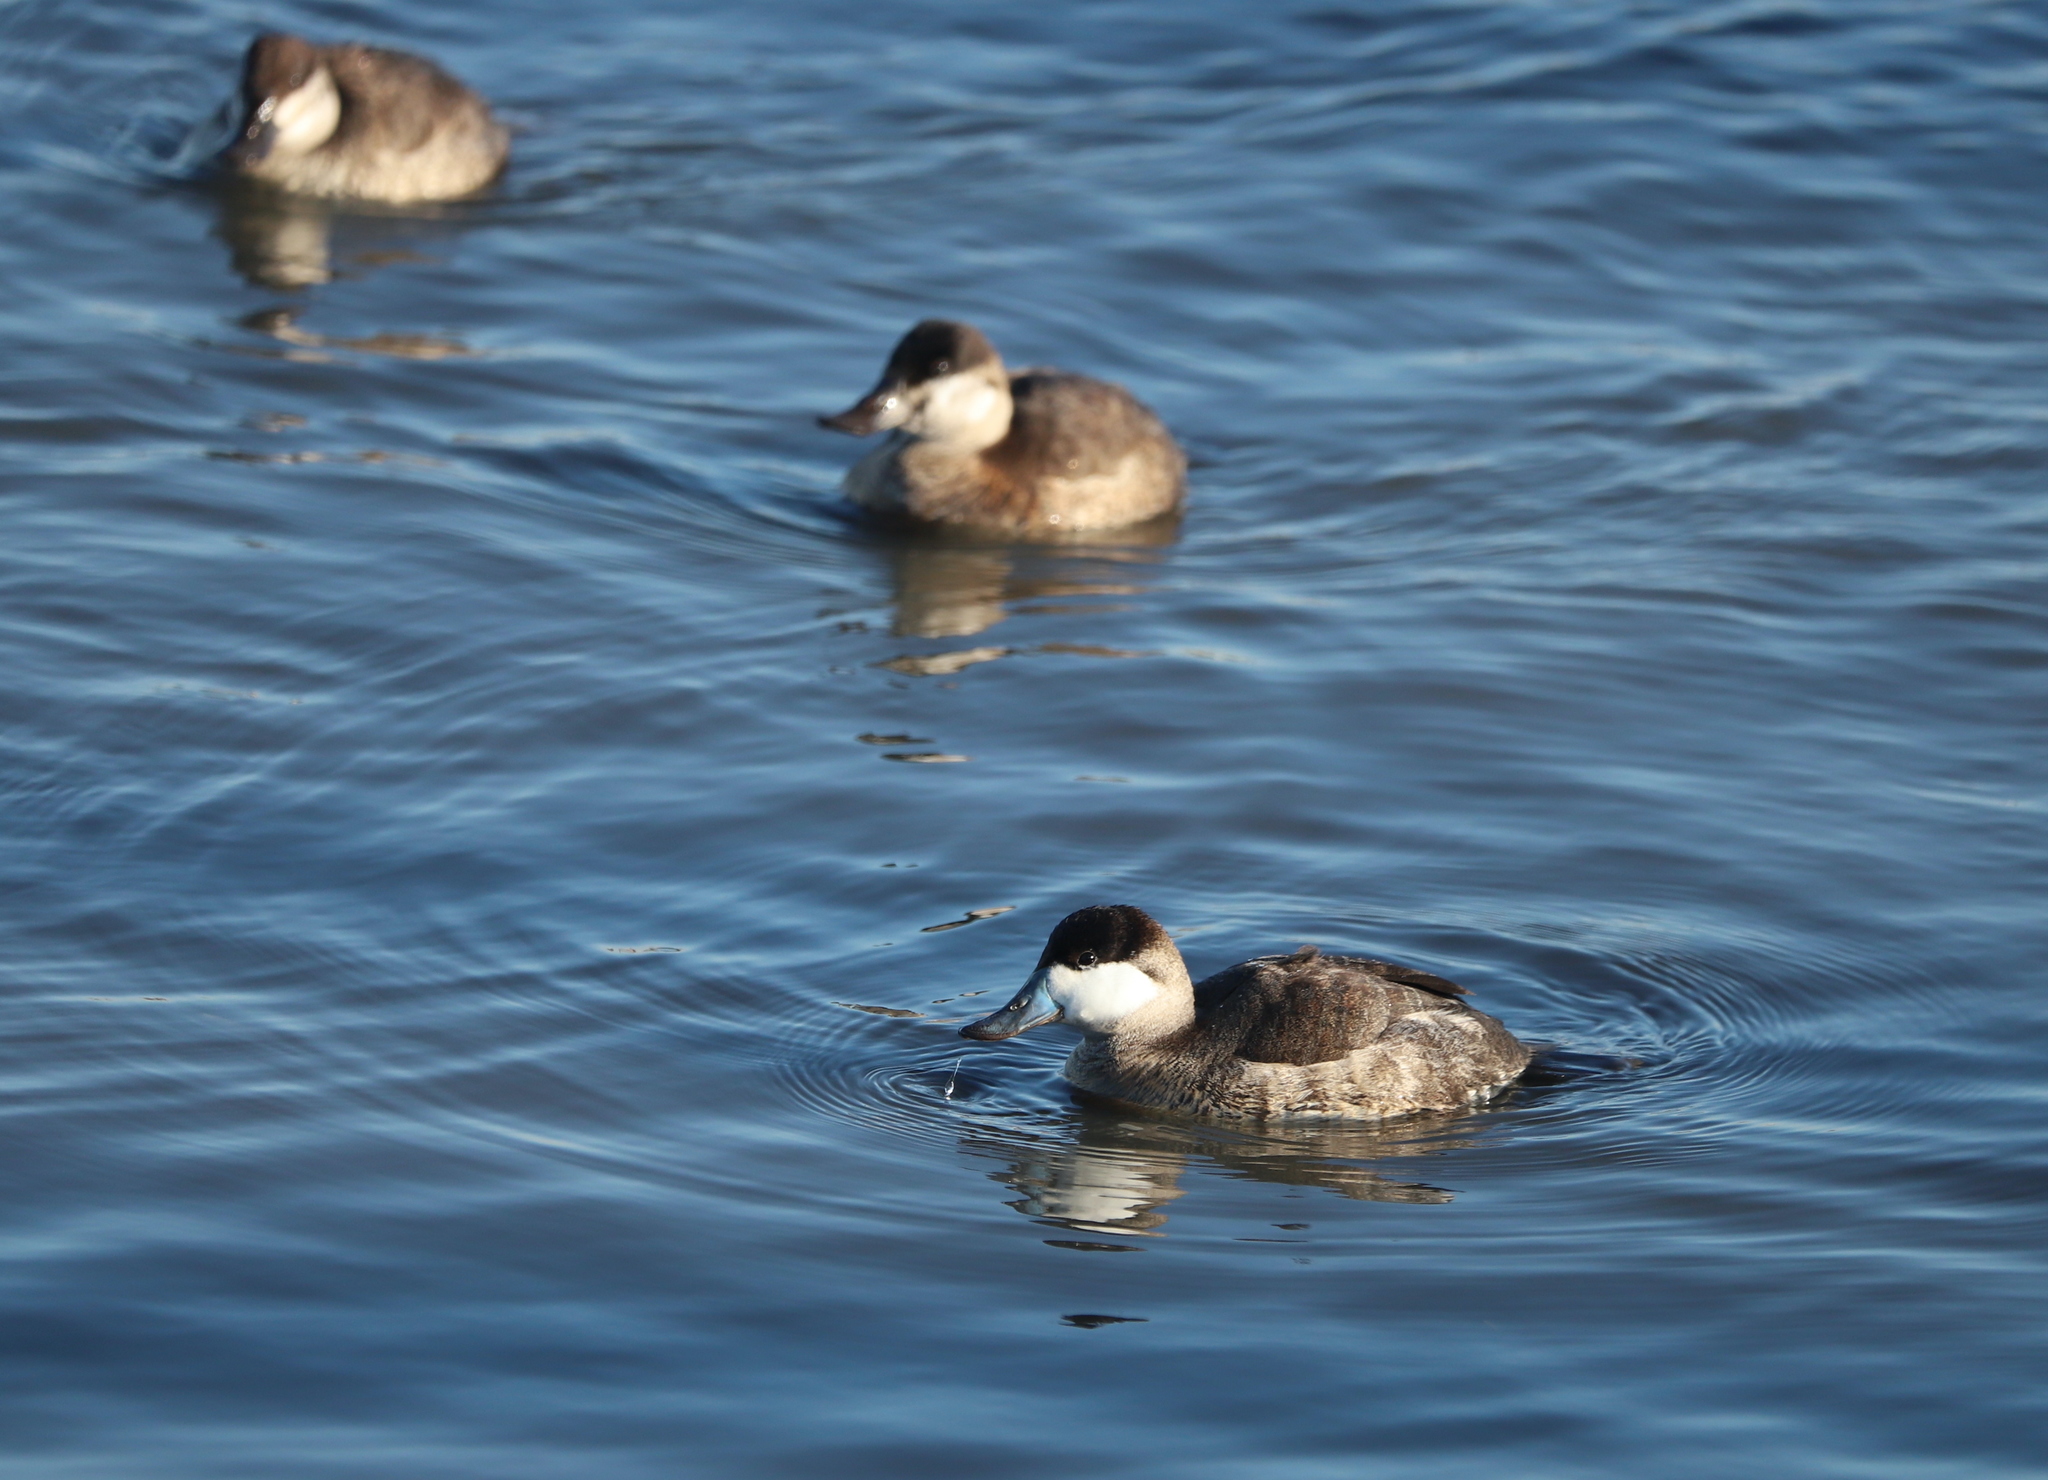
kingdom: Animalia
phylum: Chordata
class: Aves
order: Anseriformes
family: Anatidae
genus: Oxyura
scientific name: Oxyura jamaicensis
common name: Ruddy duck
